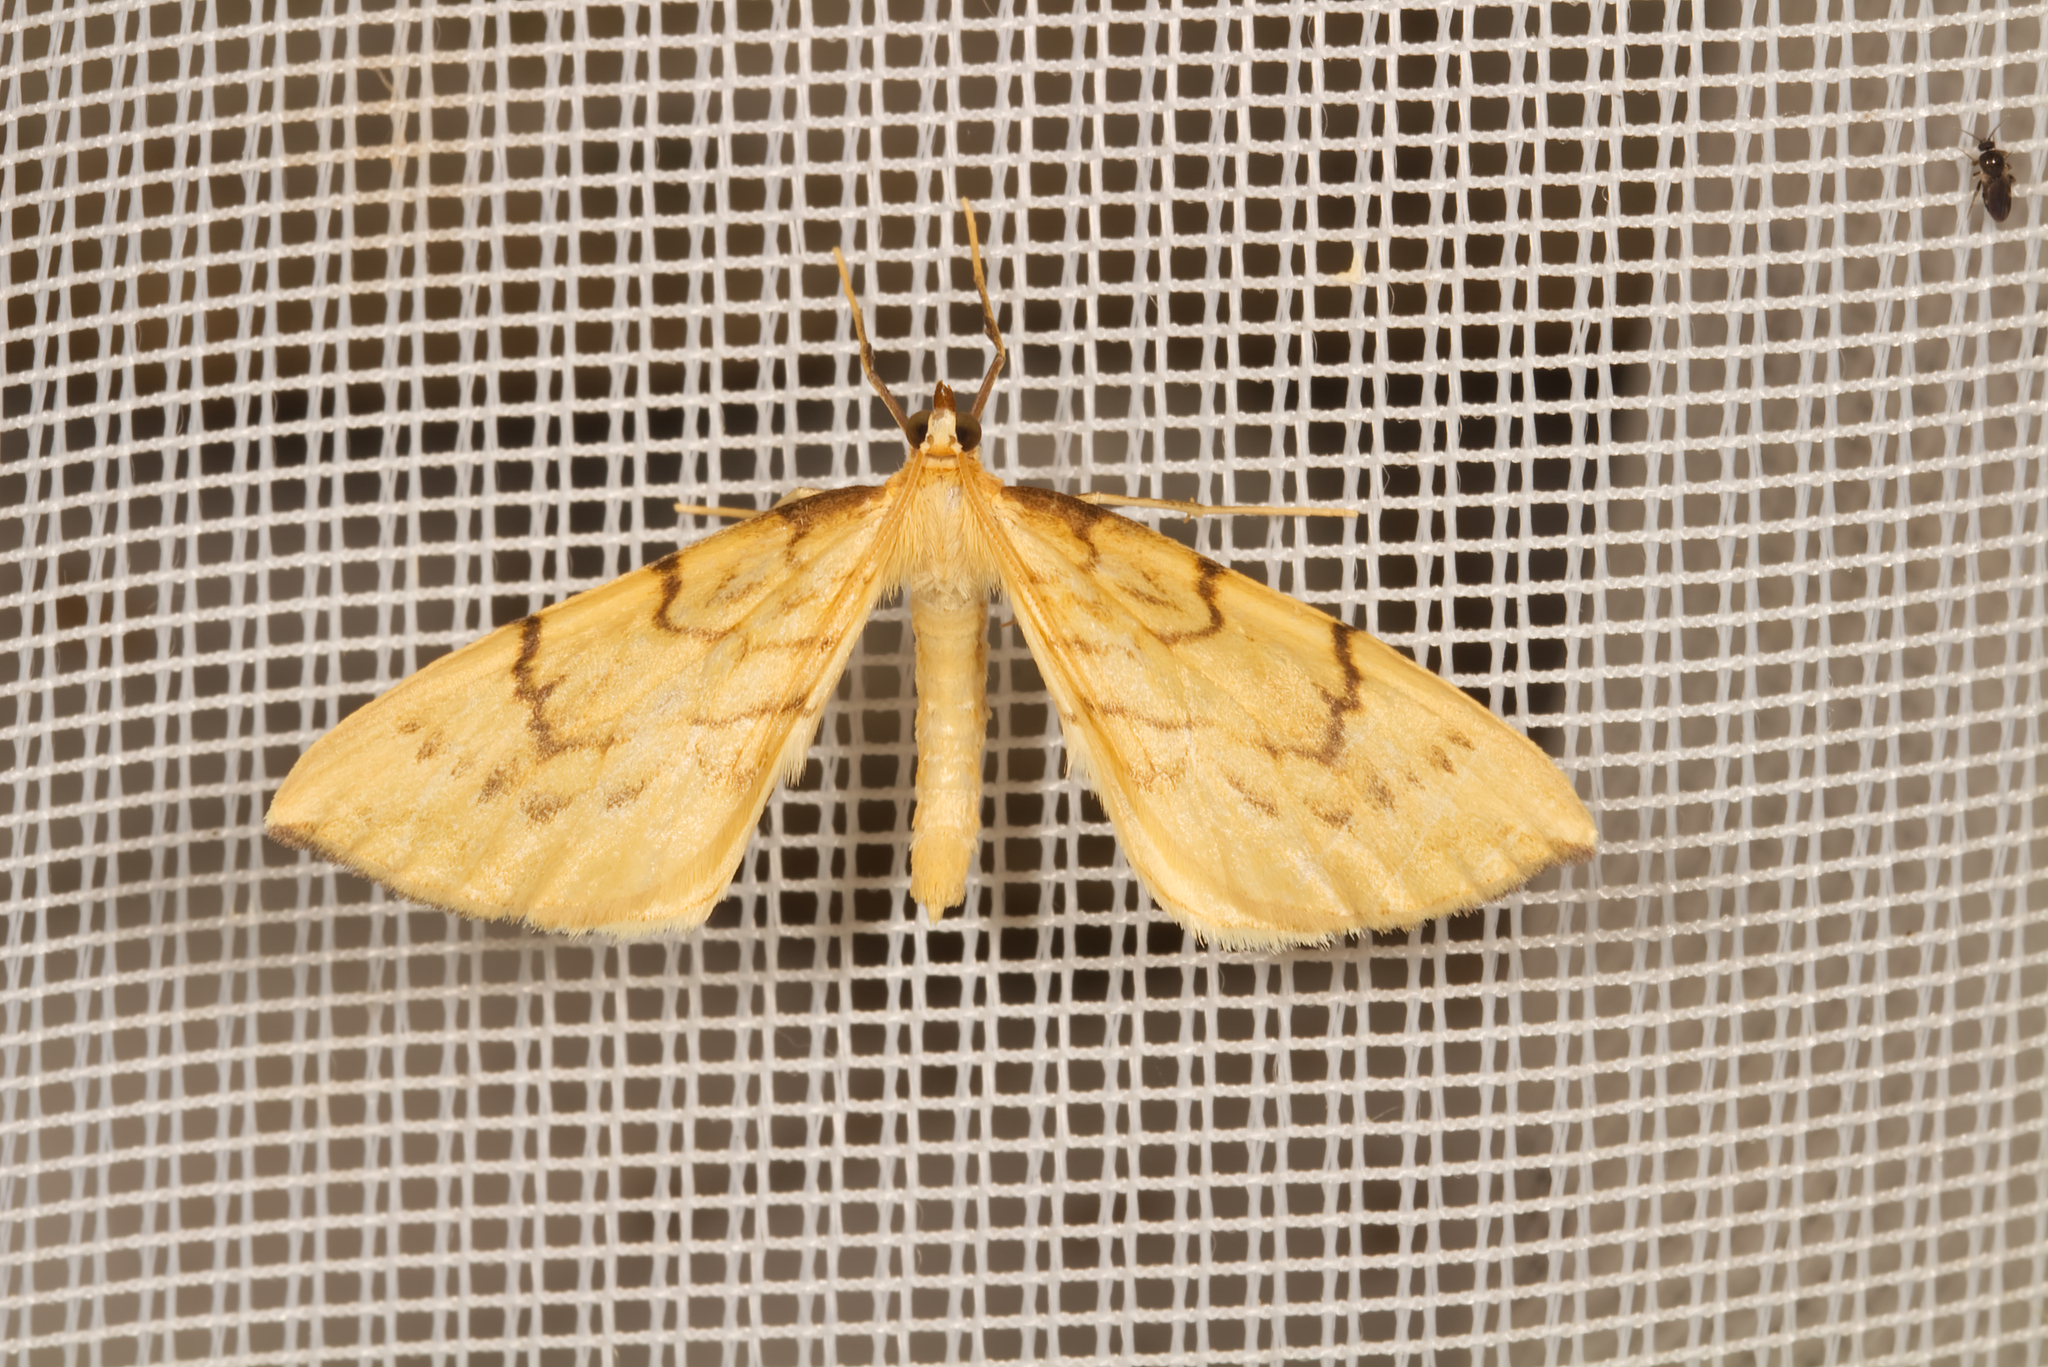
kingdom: Animalia
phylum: Arthropoda
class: Insecta
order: Lepidoptera
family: Geometridae
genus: Eulithis
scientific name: Eulithis pyraliata
